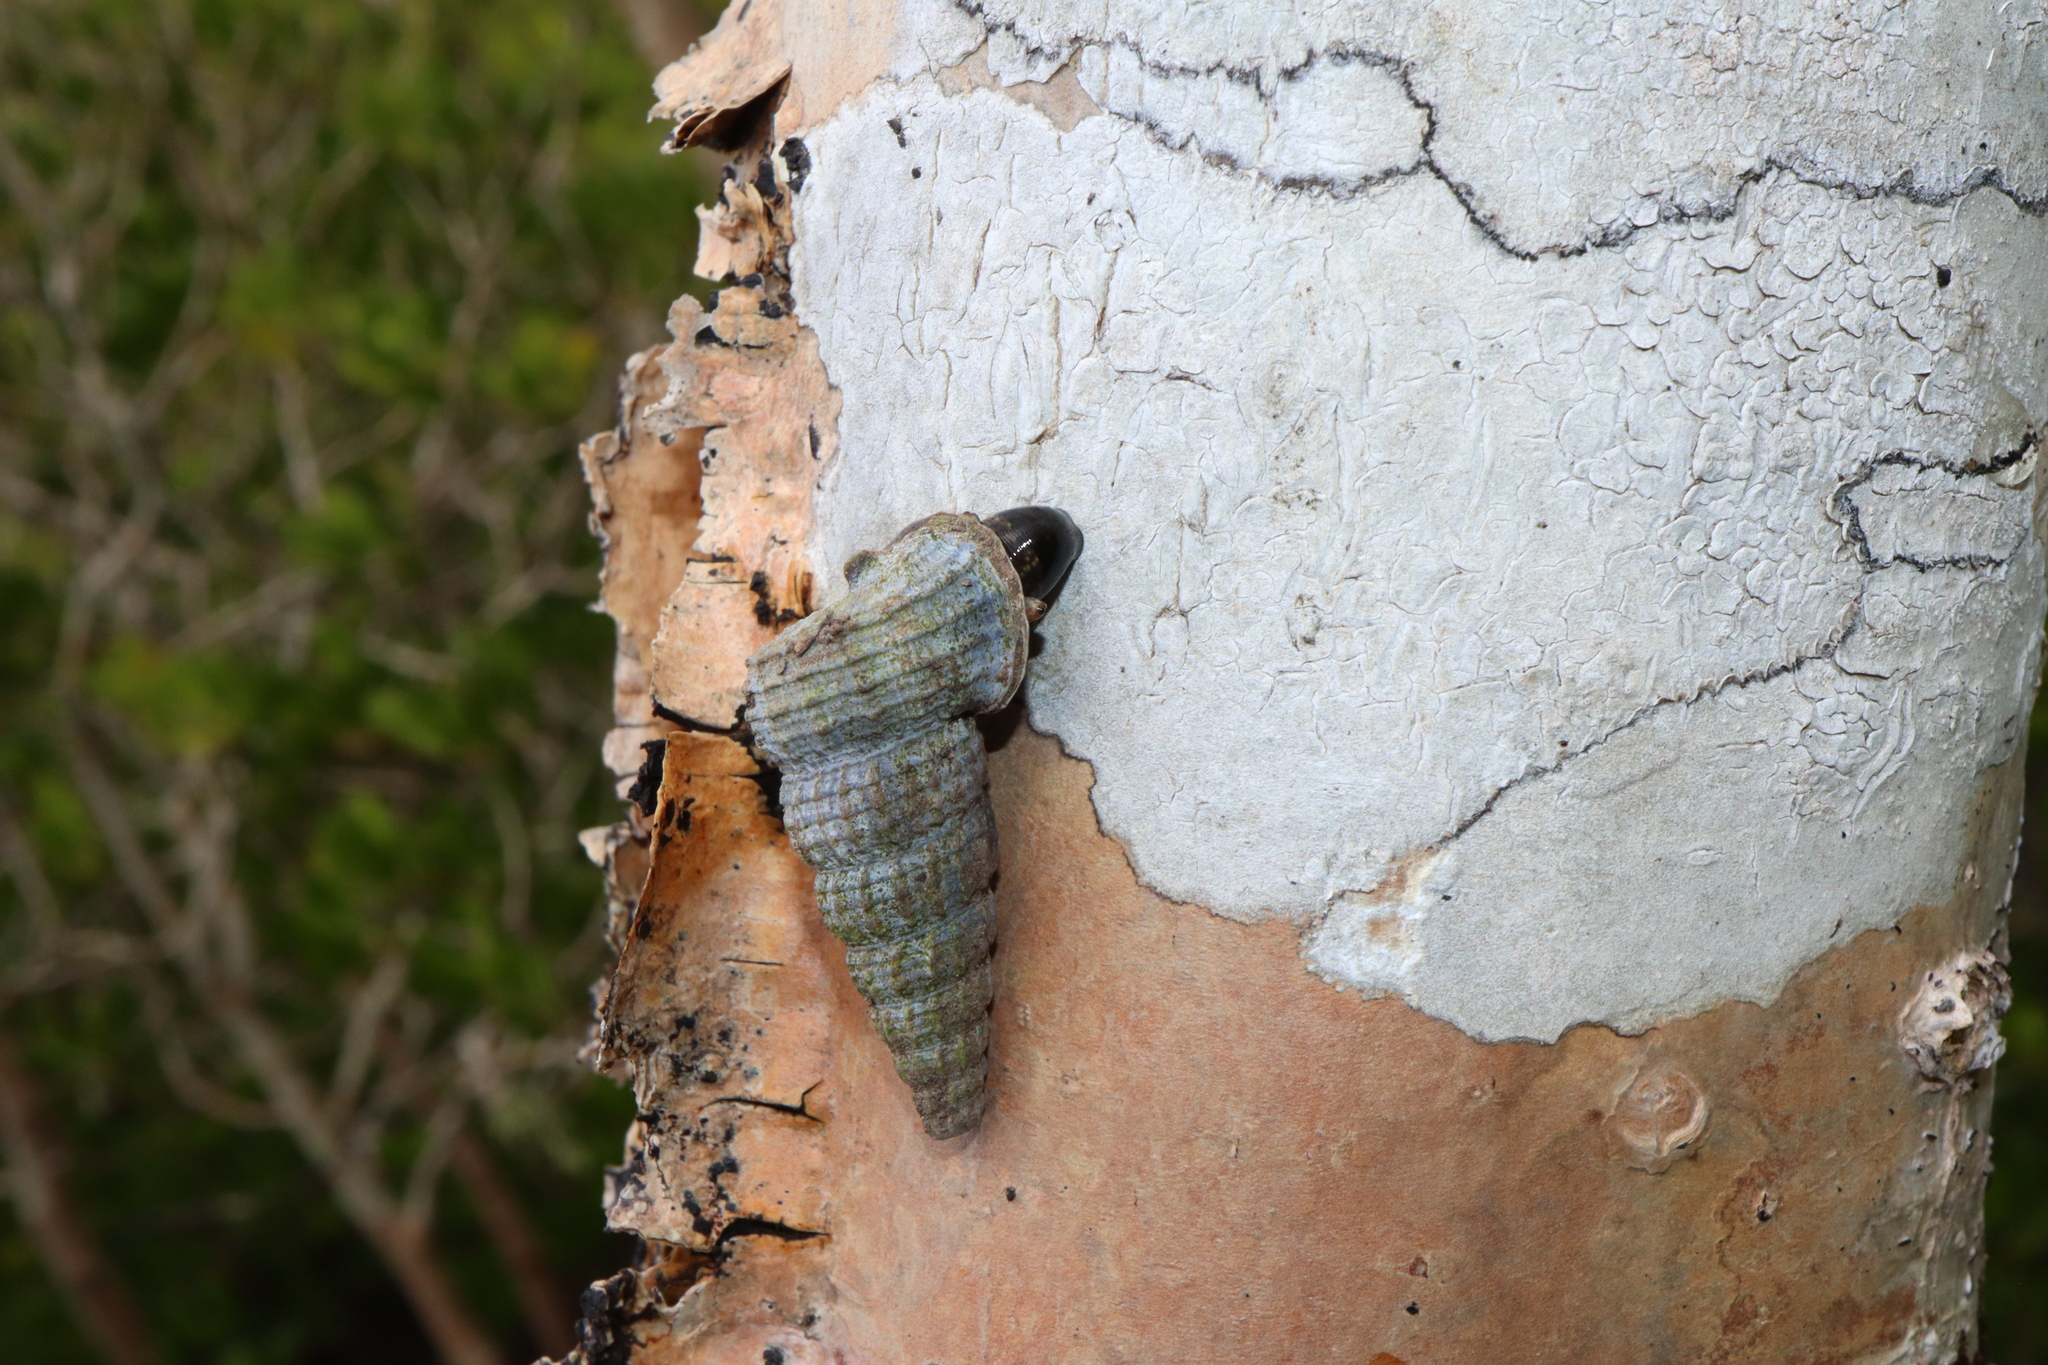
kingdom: Animalia
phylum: Mollusca
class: Gastropoda
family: Potamididae
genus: Cerithidea
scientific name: Cerithidea anticipata
